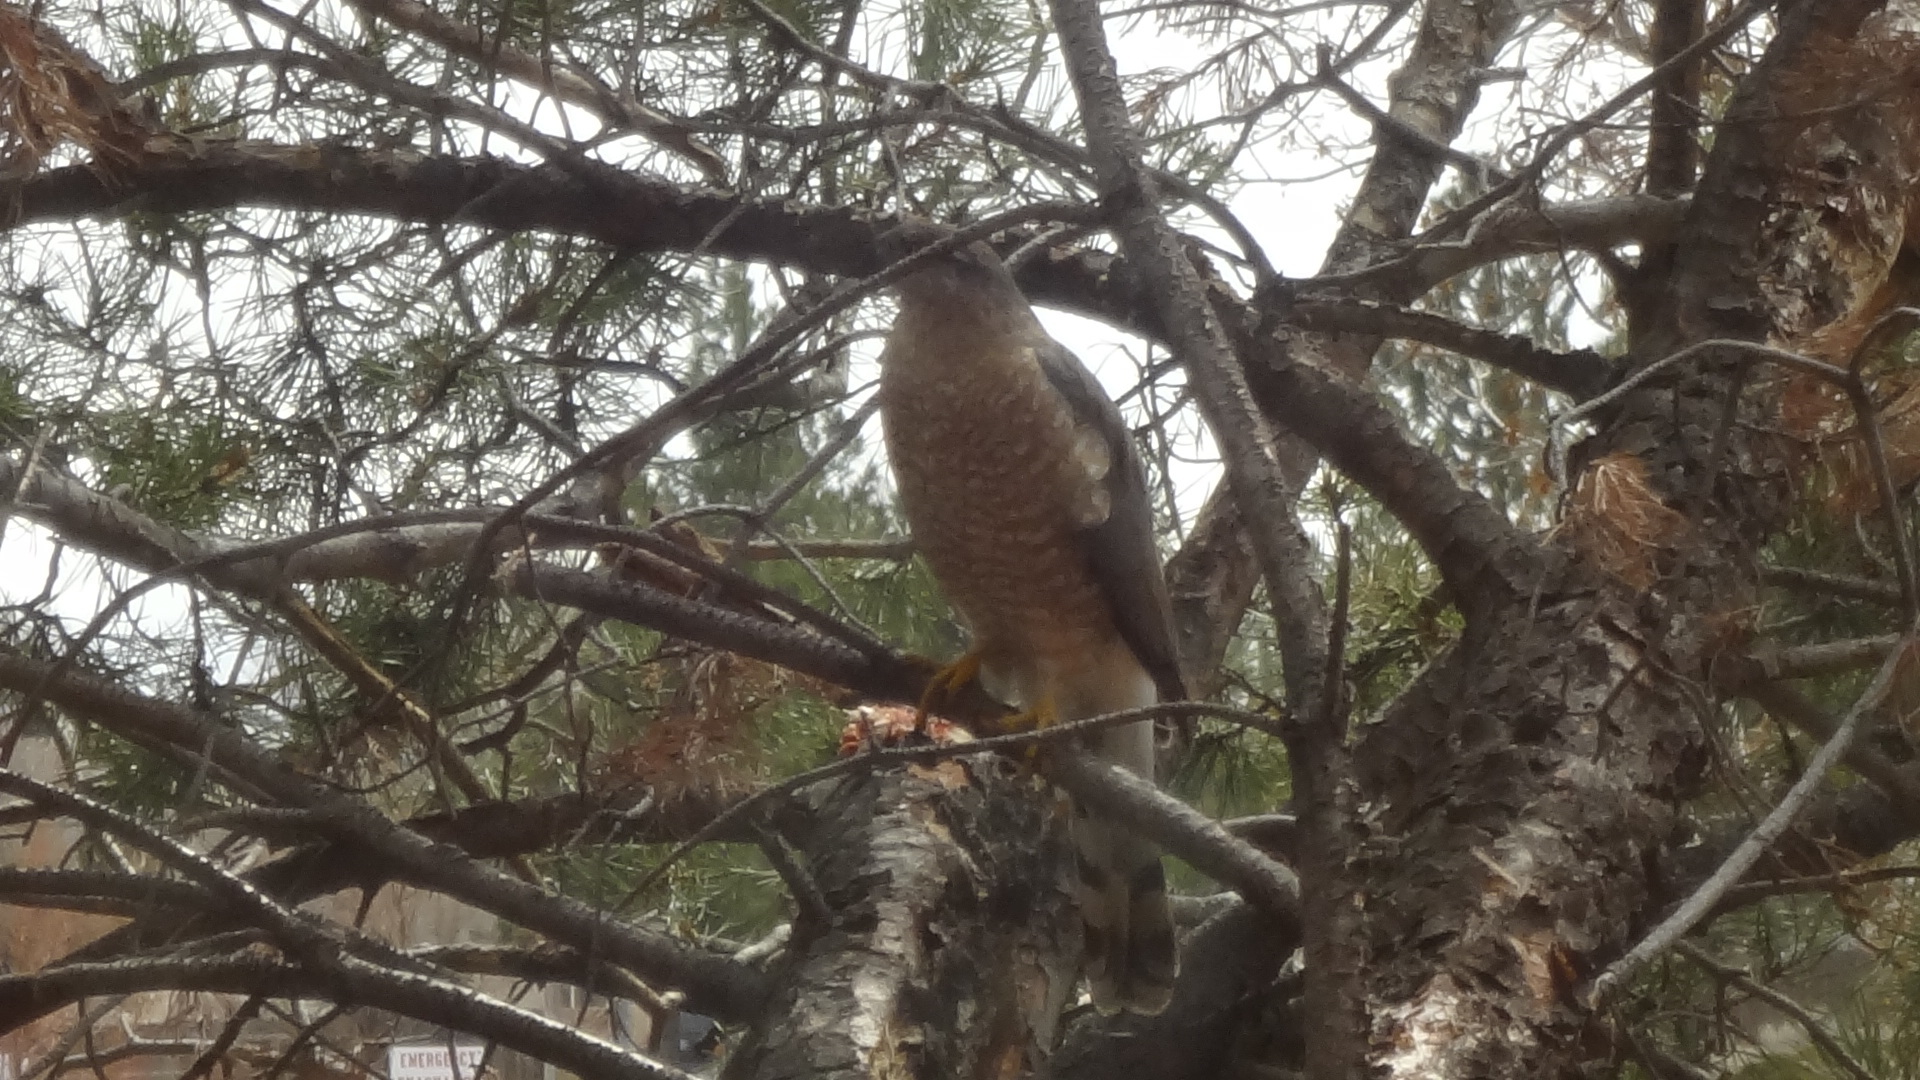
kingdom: Animalia
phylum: Chordata
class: Aves
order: Accipitriformes
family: Accipitridae
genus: Accipiter
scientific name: Accipiter cooperii
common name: Cooper's hawk
